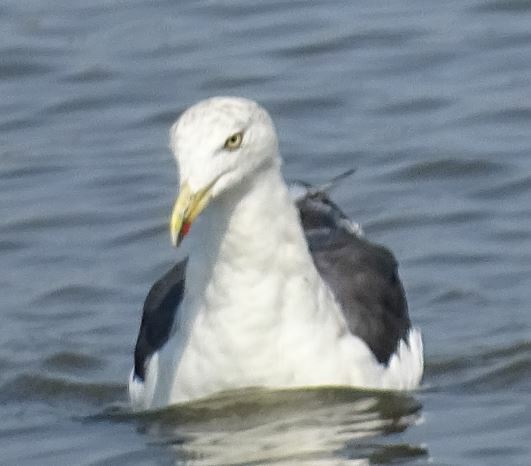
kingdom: Animalia
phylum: Chordata
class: Aves
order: Charadriiformes
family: Laridae
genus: Larus
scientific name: Larus fuscus
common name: Lesser black-backed gull
